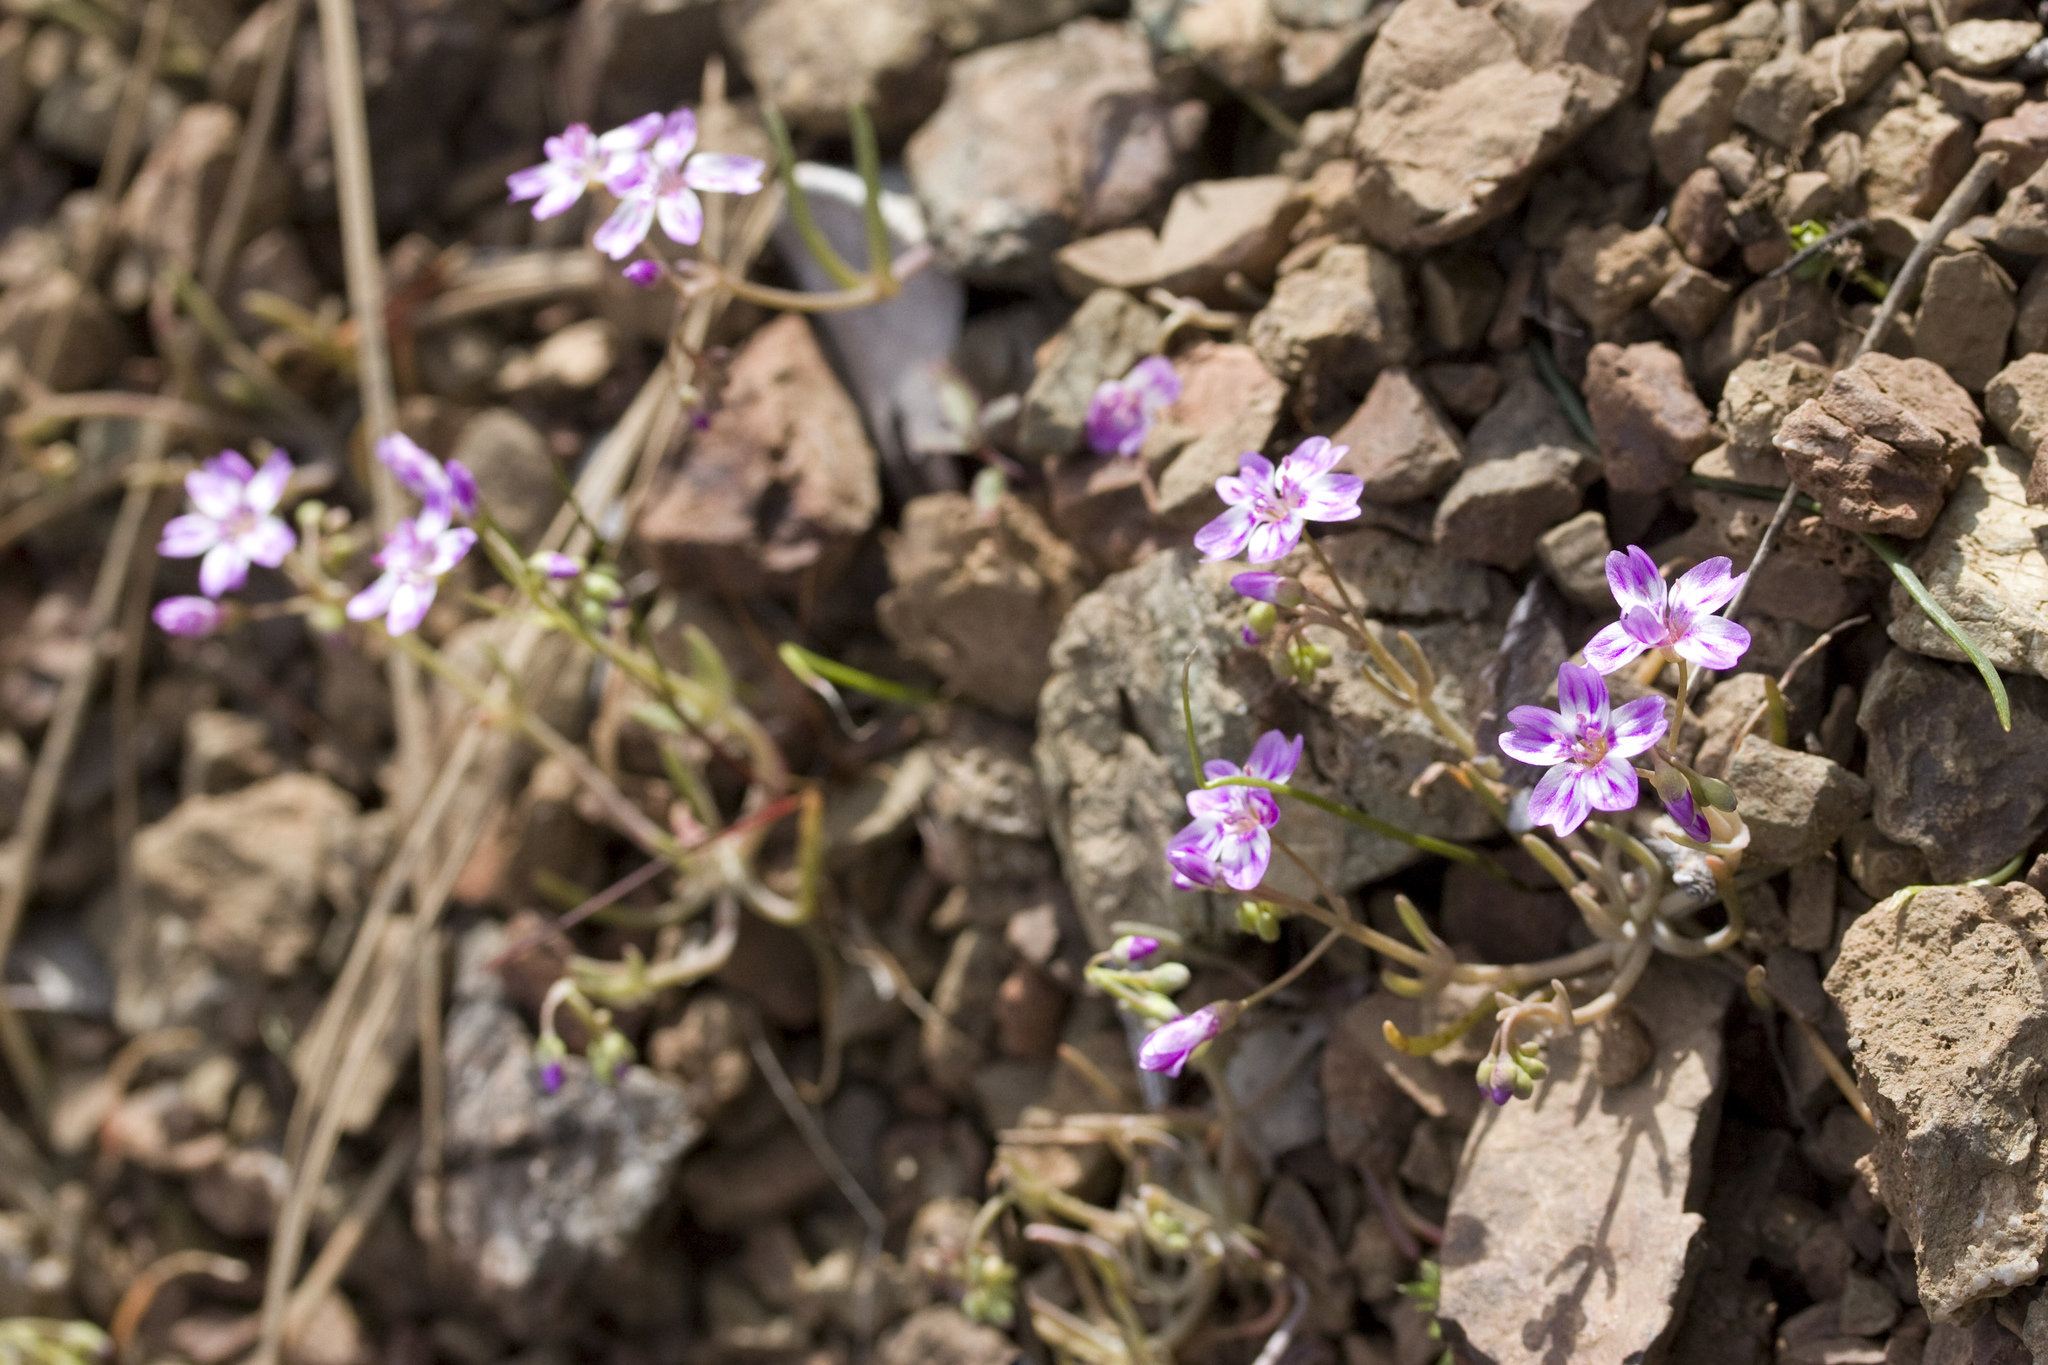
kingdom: Plantae
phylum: Tracheophyta
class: Magnoliopsida
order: Caryophyllales
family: Montiaceae
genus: Claytonia
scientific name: Claytonia gypsophiloides
